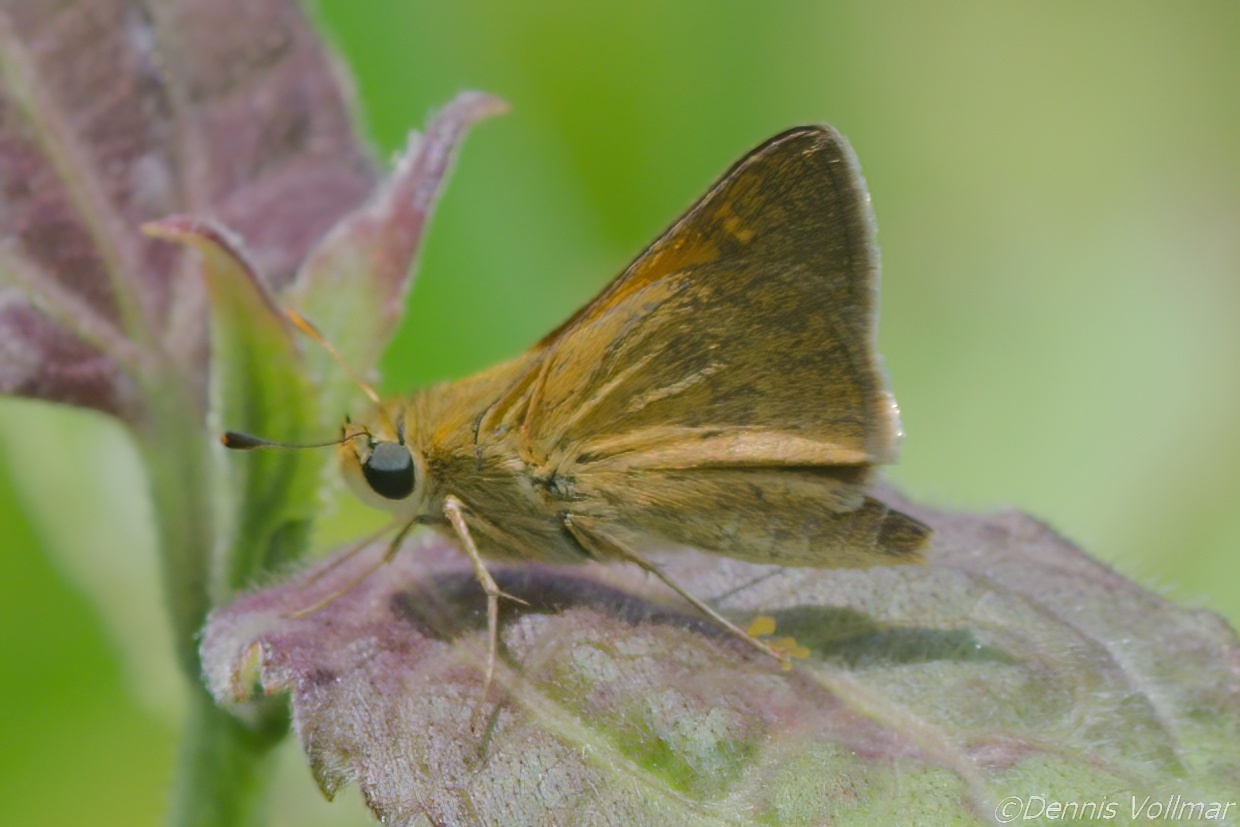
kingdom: Animalia
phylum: Arthropoda
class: Insecta
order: Lepidoptera
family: Hesperiidae
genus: Polites
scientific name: Polites themistocles
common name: Tawny-edged skipper
